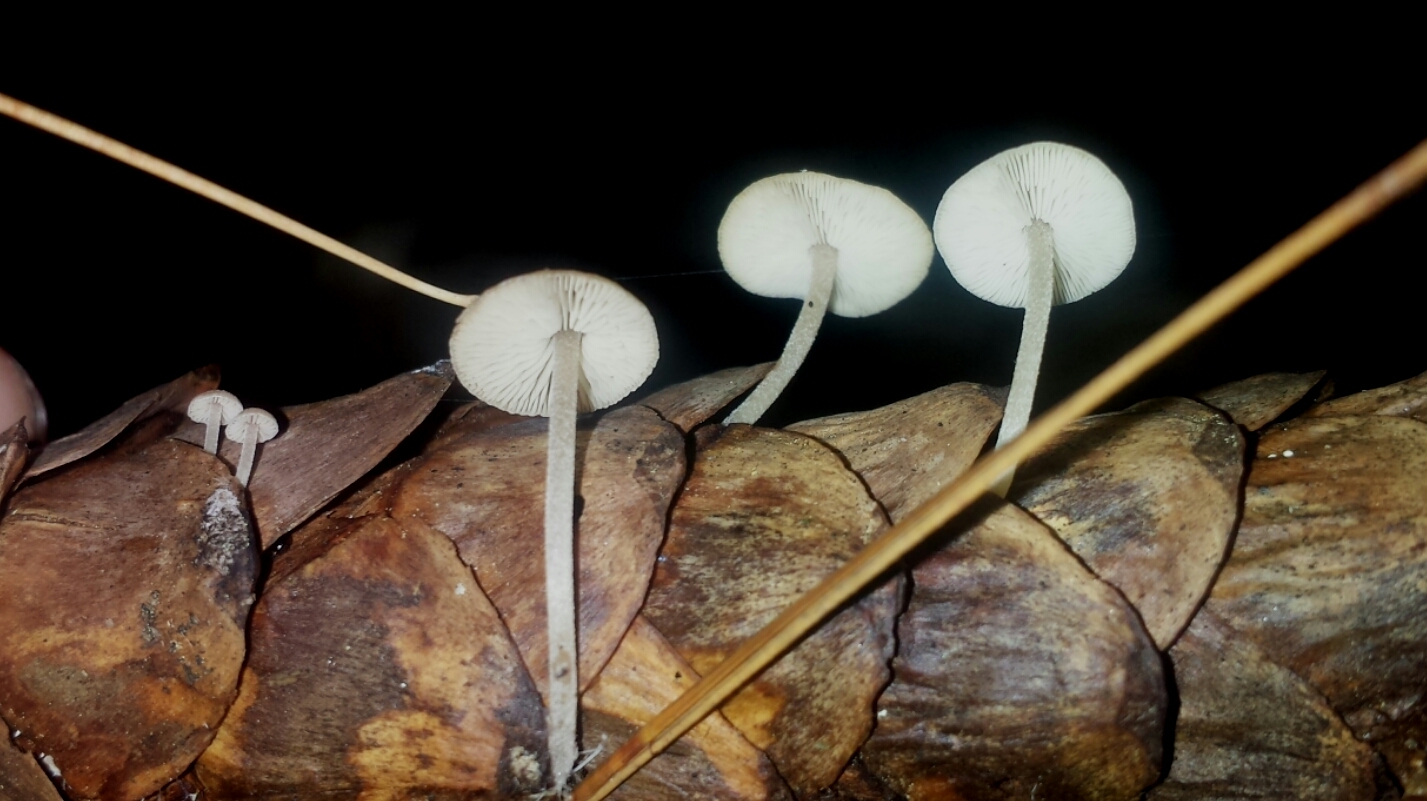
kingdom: Fungi
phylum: Basidiomycota
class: Agaricomycetes
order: Agaricales
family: Marasmiaceae
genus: Baeospora
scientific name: Baeospora myosura
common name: Conifercone cap
